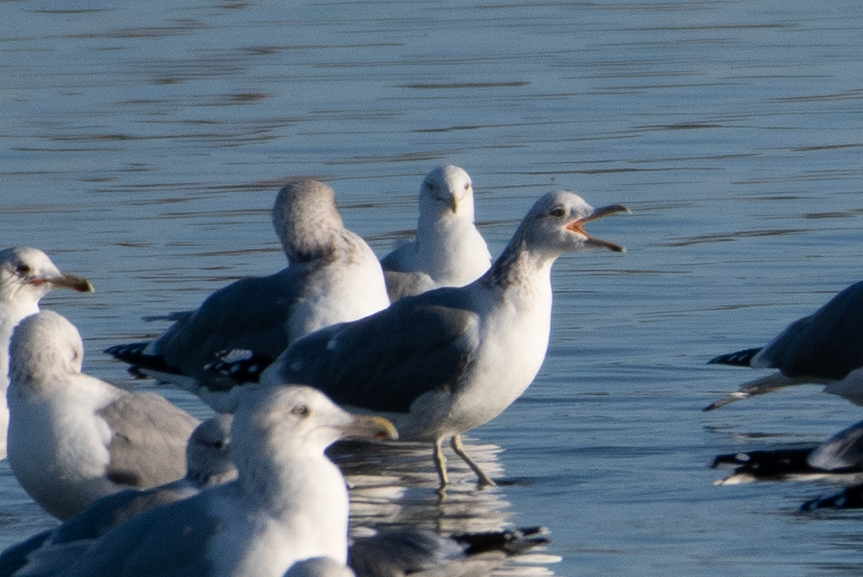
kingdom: Animalia
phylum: Chordata
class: Aves
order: Charadriiformes
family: Laridae
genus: Larus
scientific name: Larus californicus
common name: California gull
